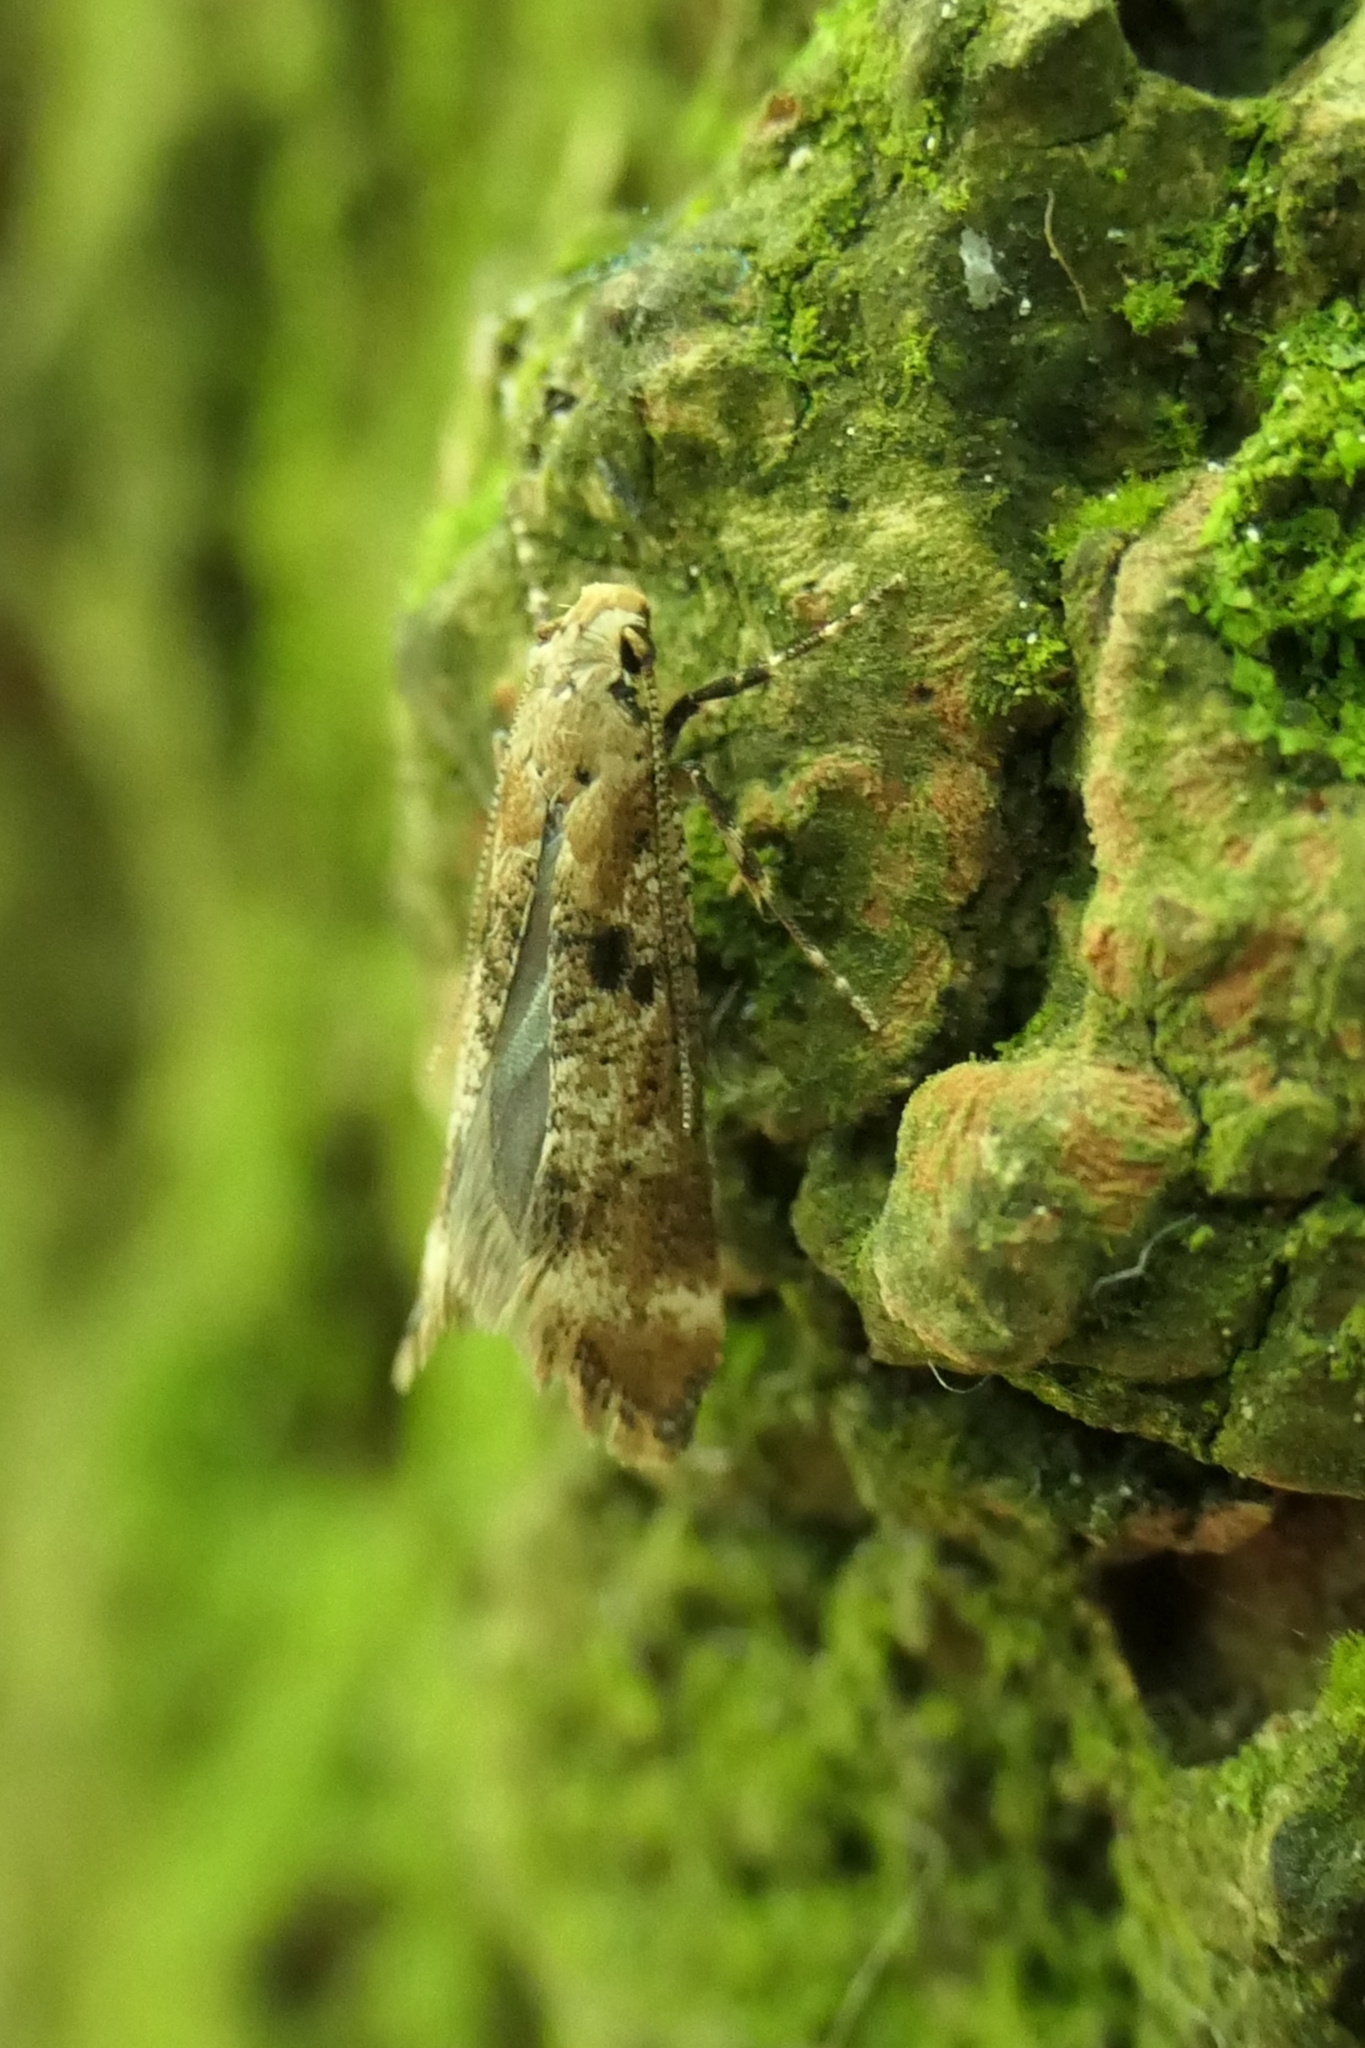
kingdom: Animalia
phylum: Arthropoda
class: Insecta
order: Lepidoptera
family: Gelechiidae
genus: Anisoplaca
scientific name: Anisoplaca acrodactyla
